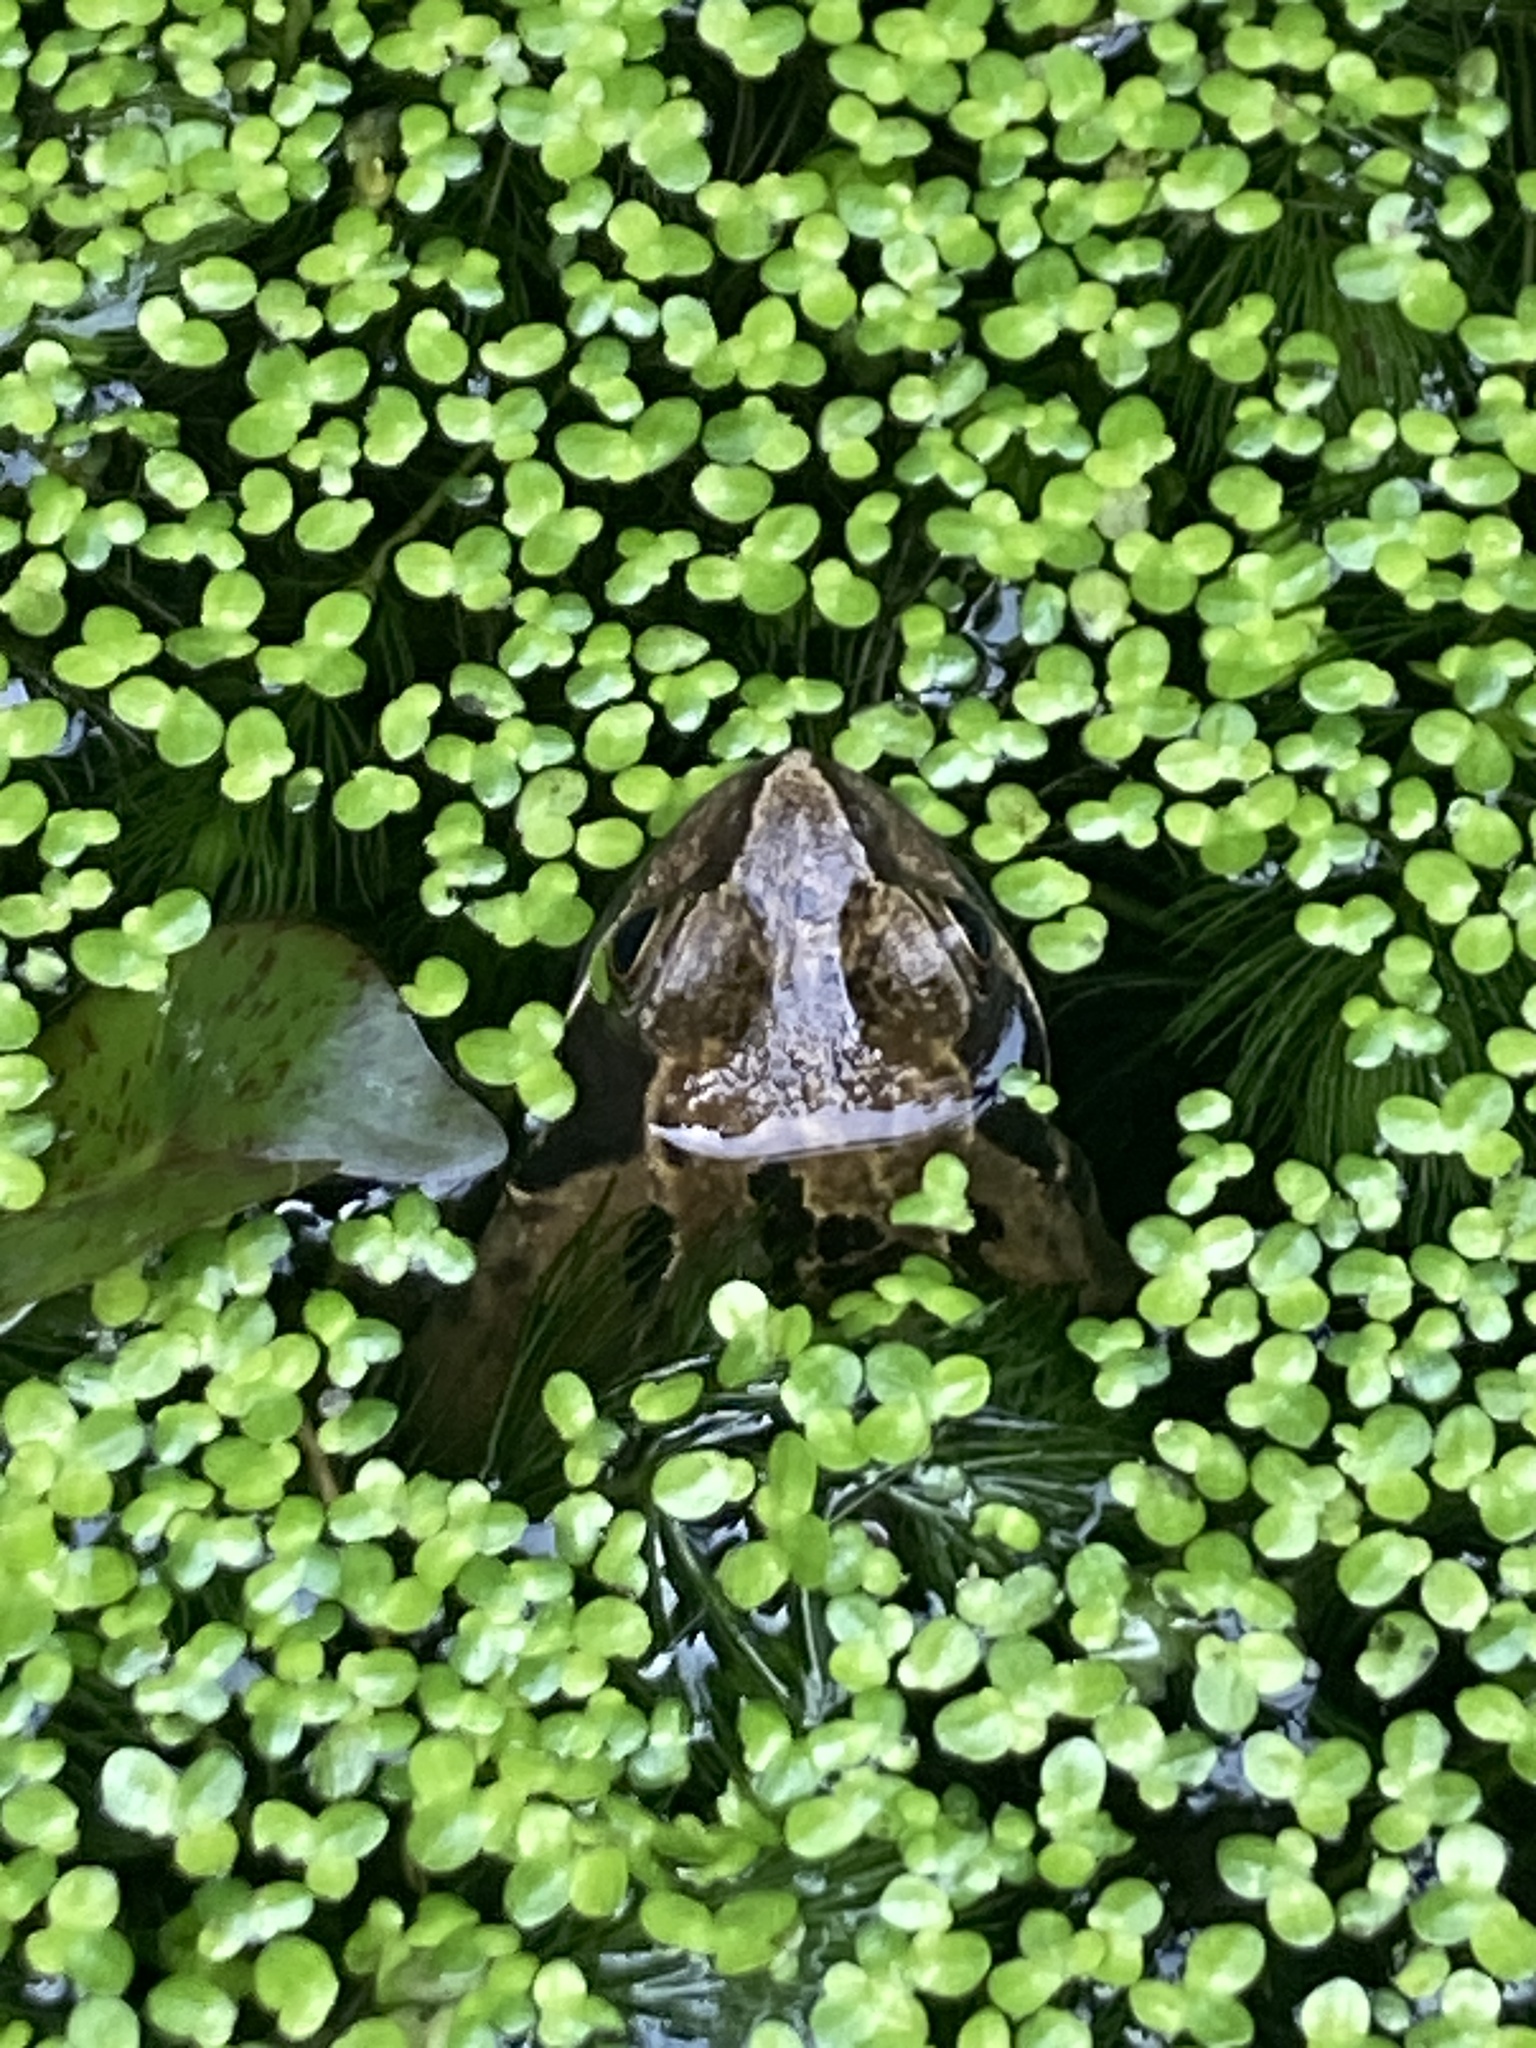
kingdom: Animalia
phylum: Chordata
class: Amphibia
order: Anura
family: Ranidae
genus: Rana
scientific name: Rana temporaria
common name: Common frog
